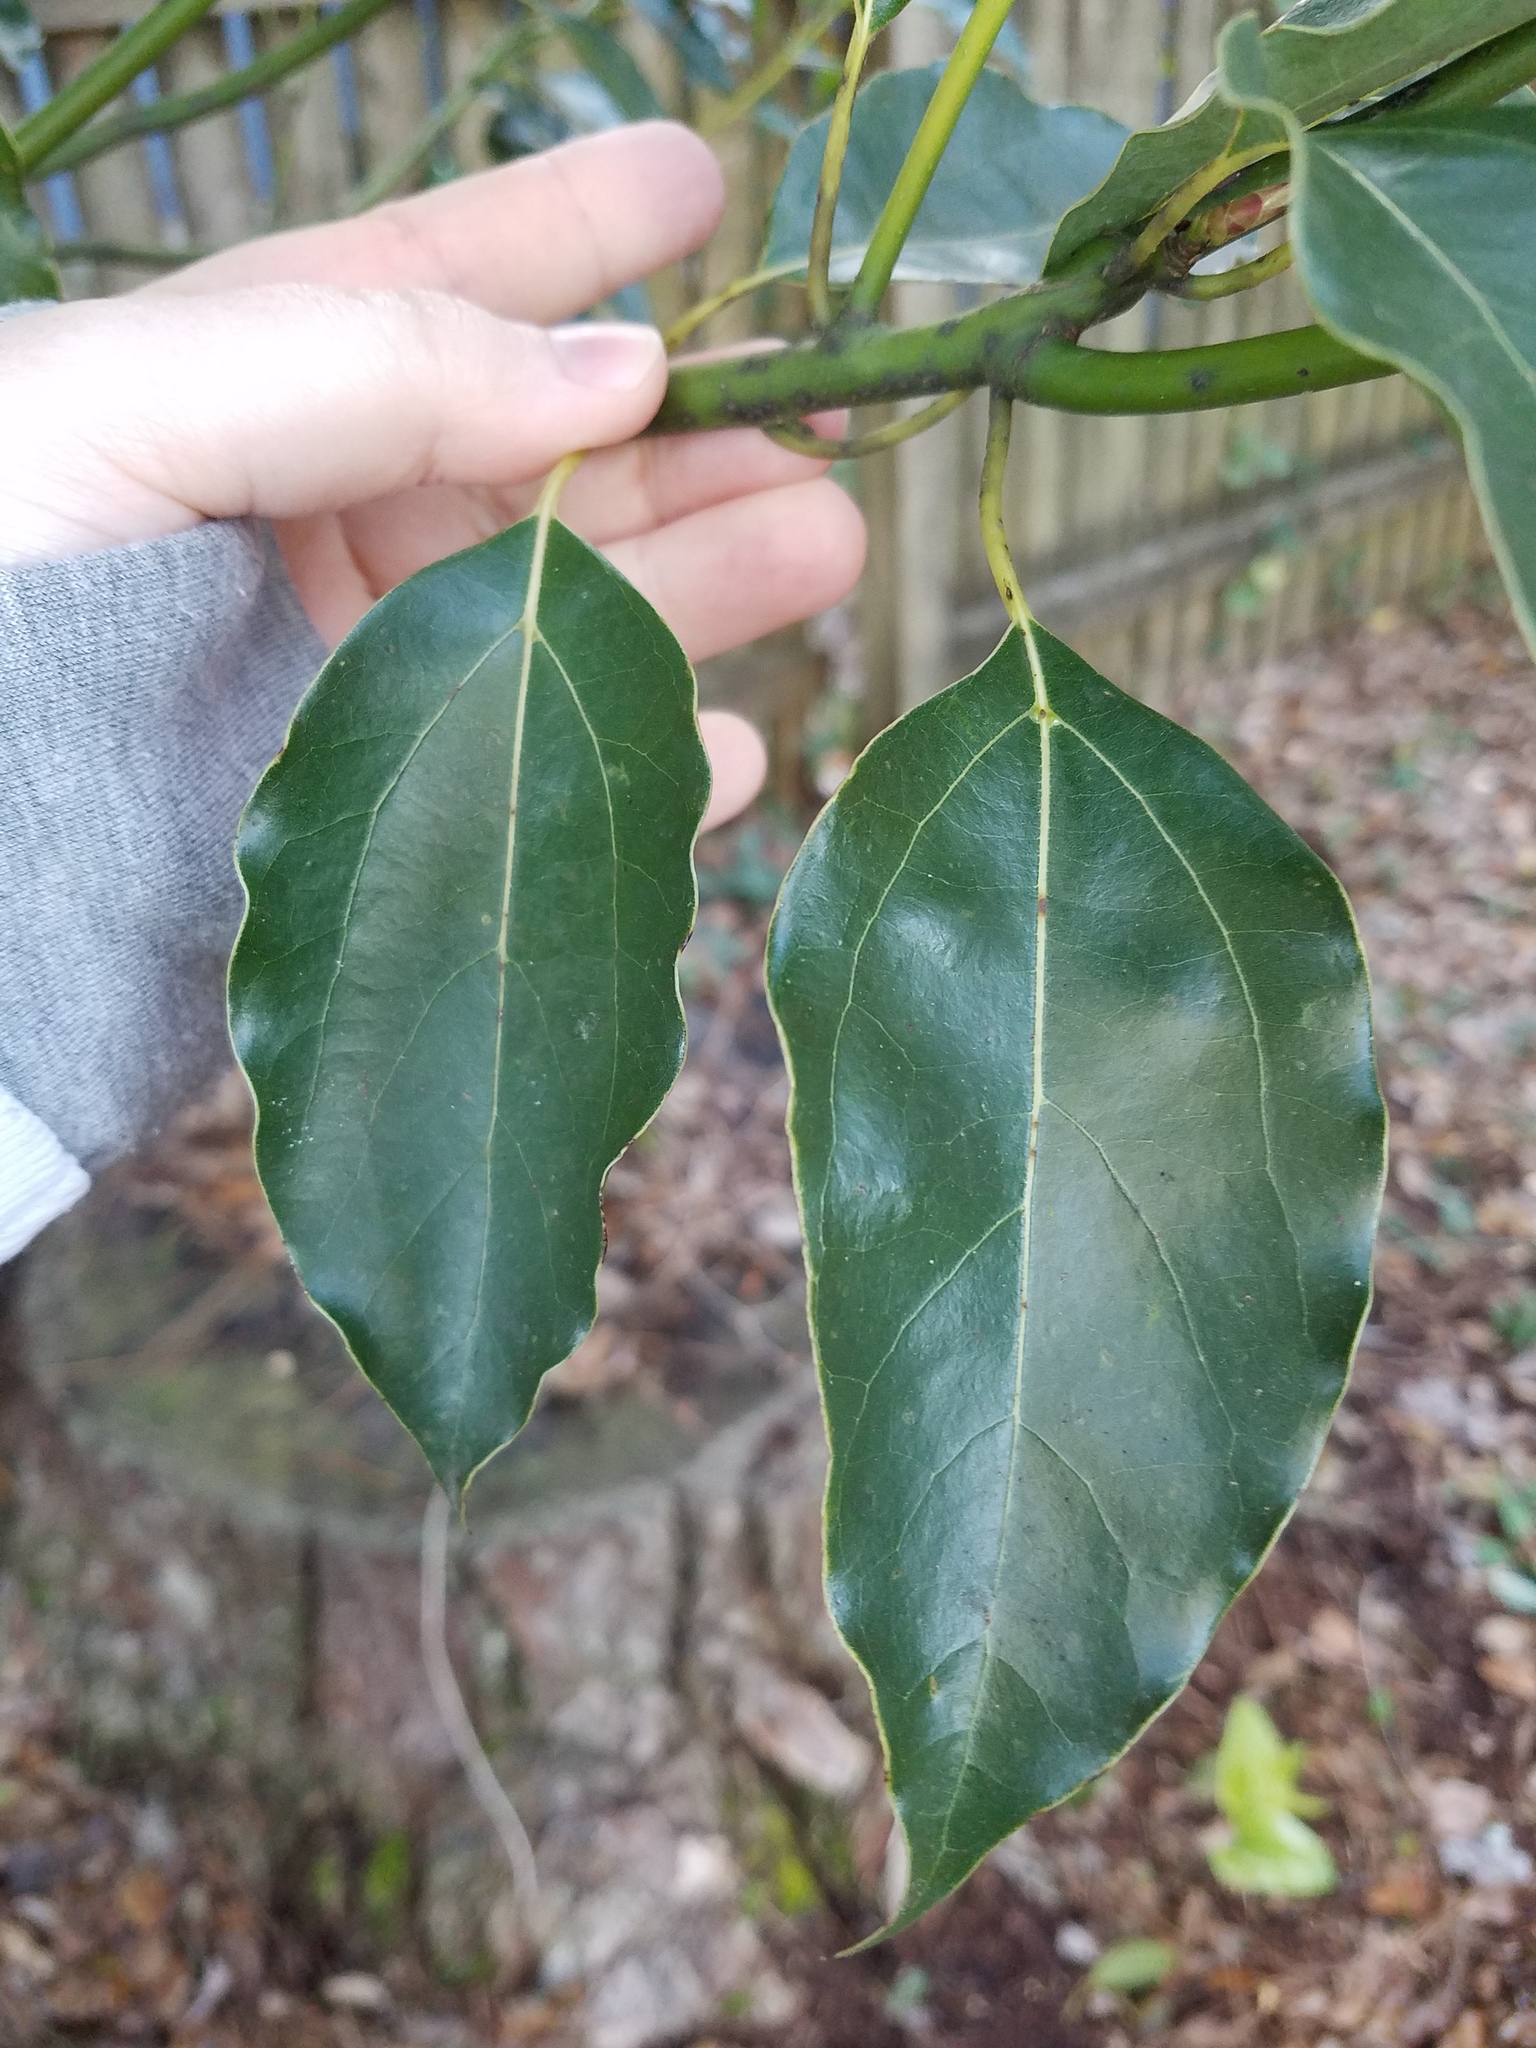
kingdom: Plantae
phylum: Tracheophyta
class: Magnoliopsida
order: Laurales
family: Lauraceae
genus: Cinnamomum
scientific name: Cinnamomum camphora
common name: Camphortree
